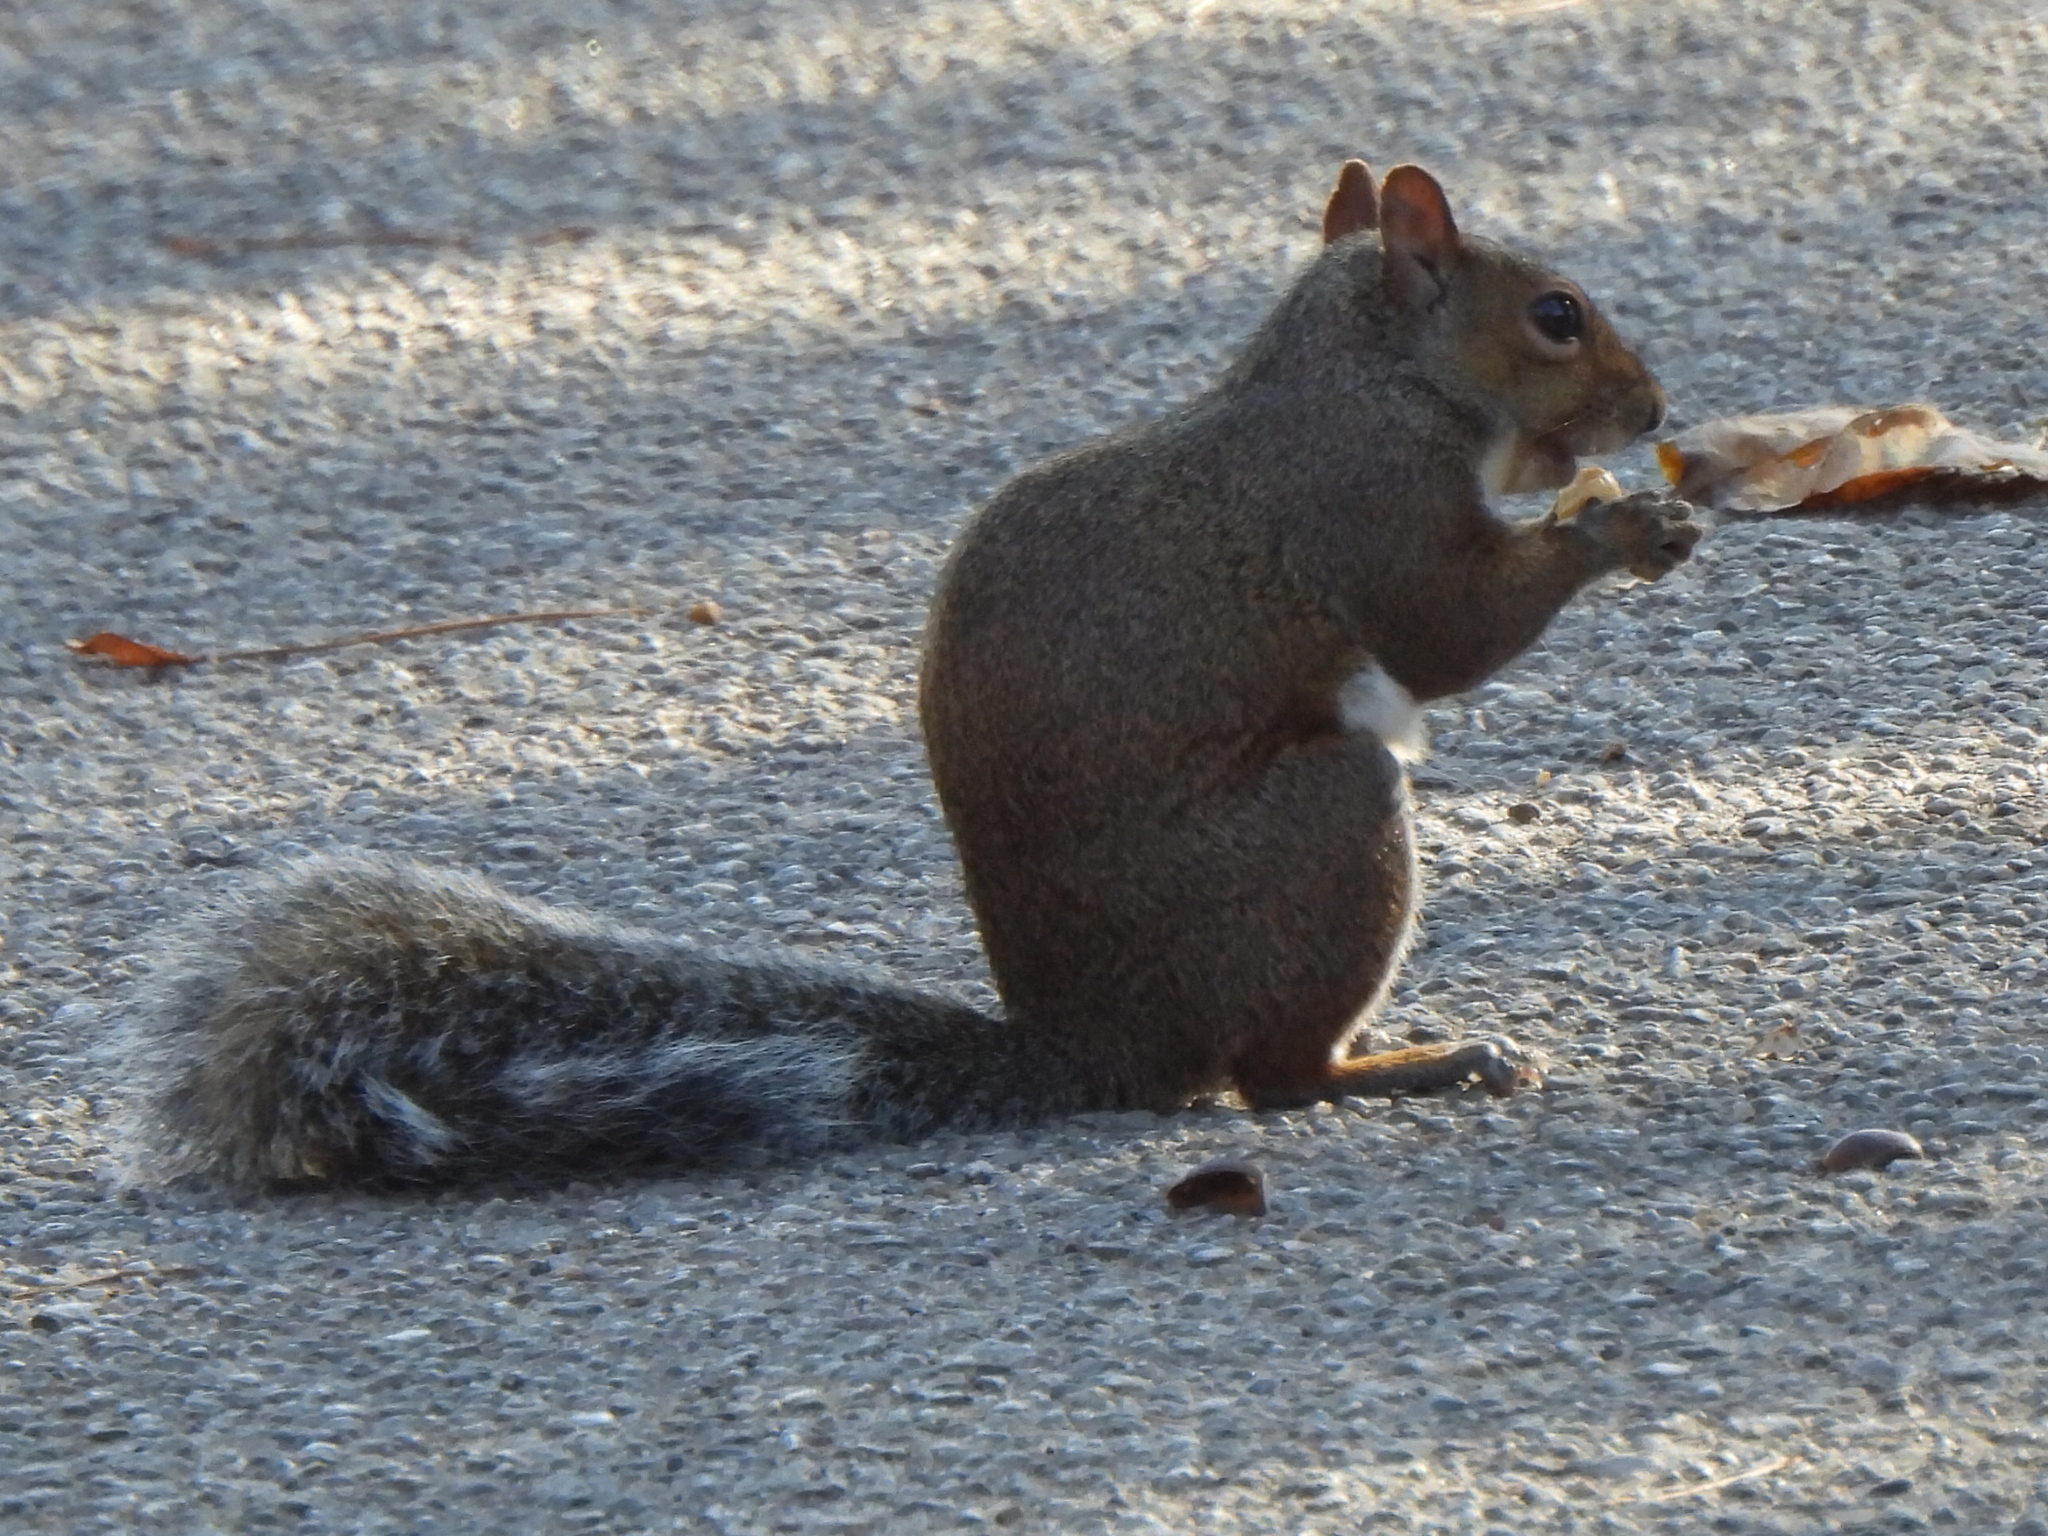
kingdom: Animalia
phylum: Chordata
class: Mammalia
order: Rodentia
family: Sciuridae
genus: Sciurus
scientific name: Sciurus carolinensis
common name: Eastern gray squirrel
